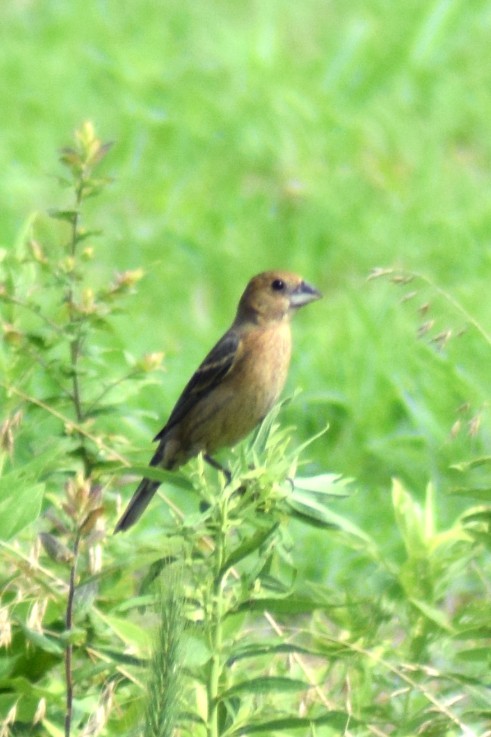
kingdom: Animalia
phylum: Chordata
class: Aves
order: Passeriformes
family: Cardinalidae
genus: Passerina
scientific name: Passerina caerulea
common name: Blue grosbeak
